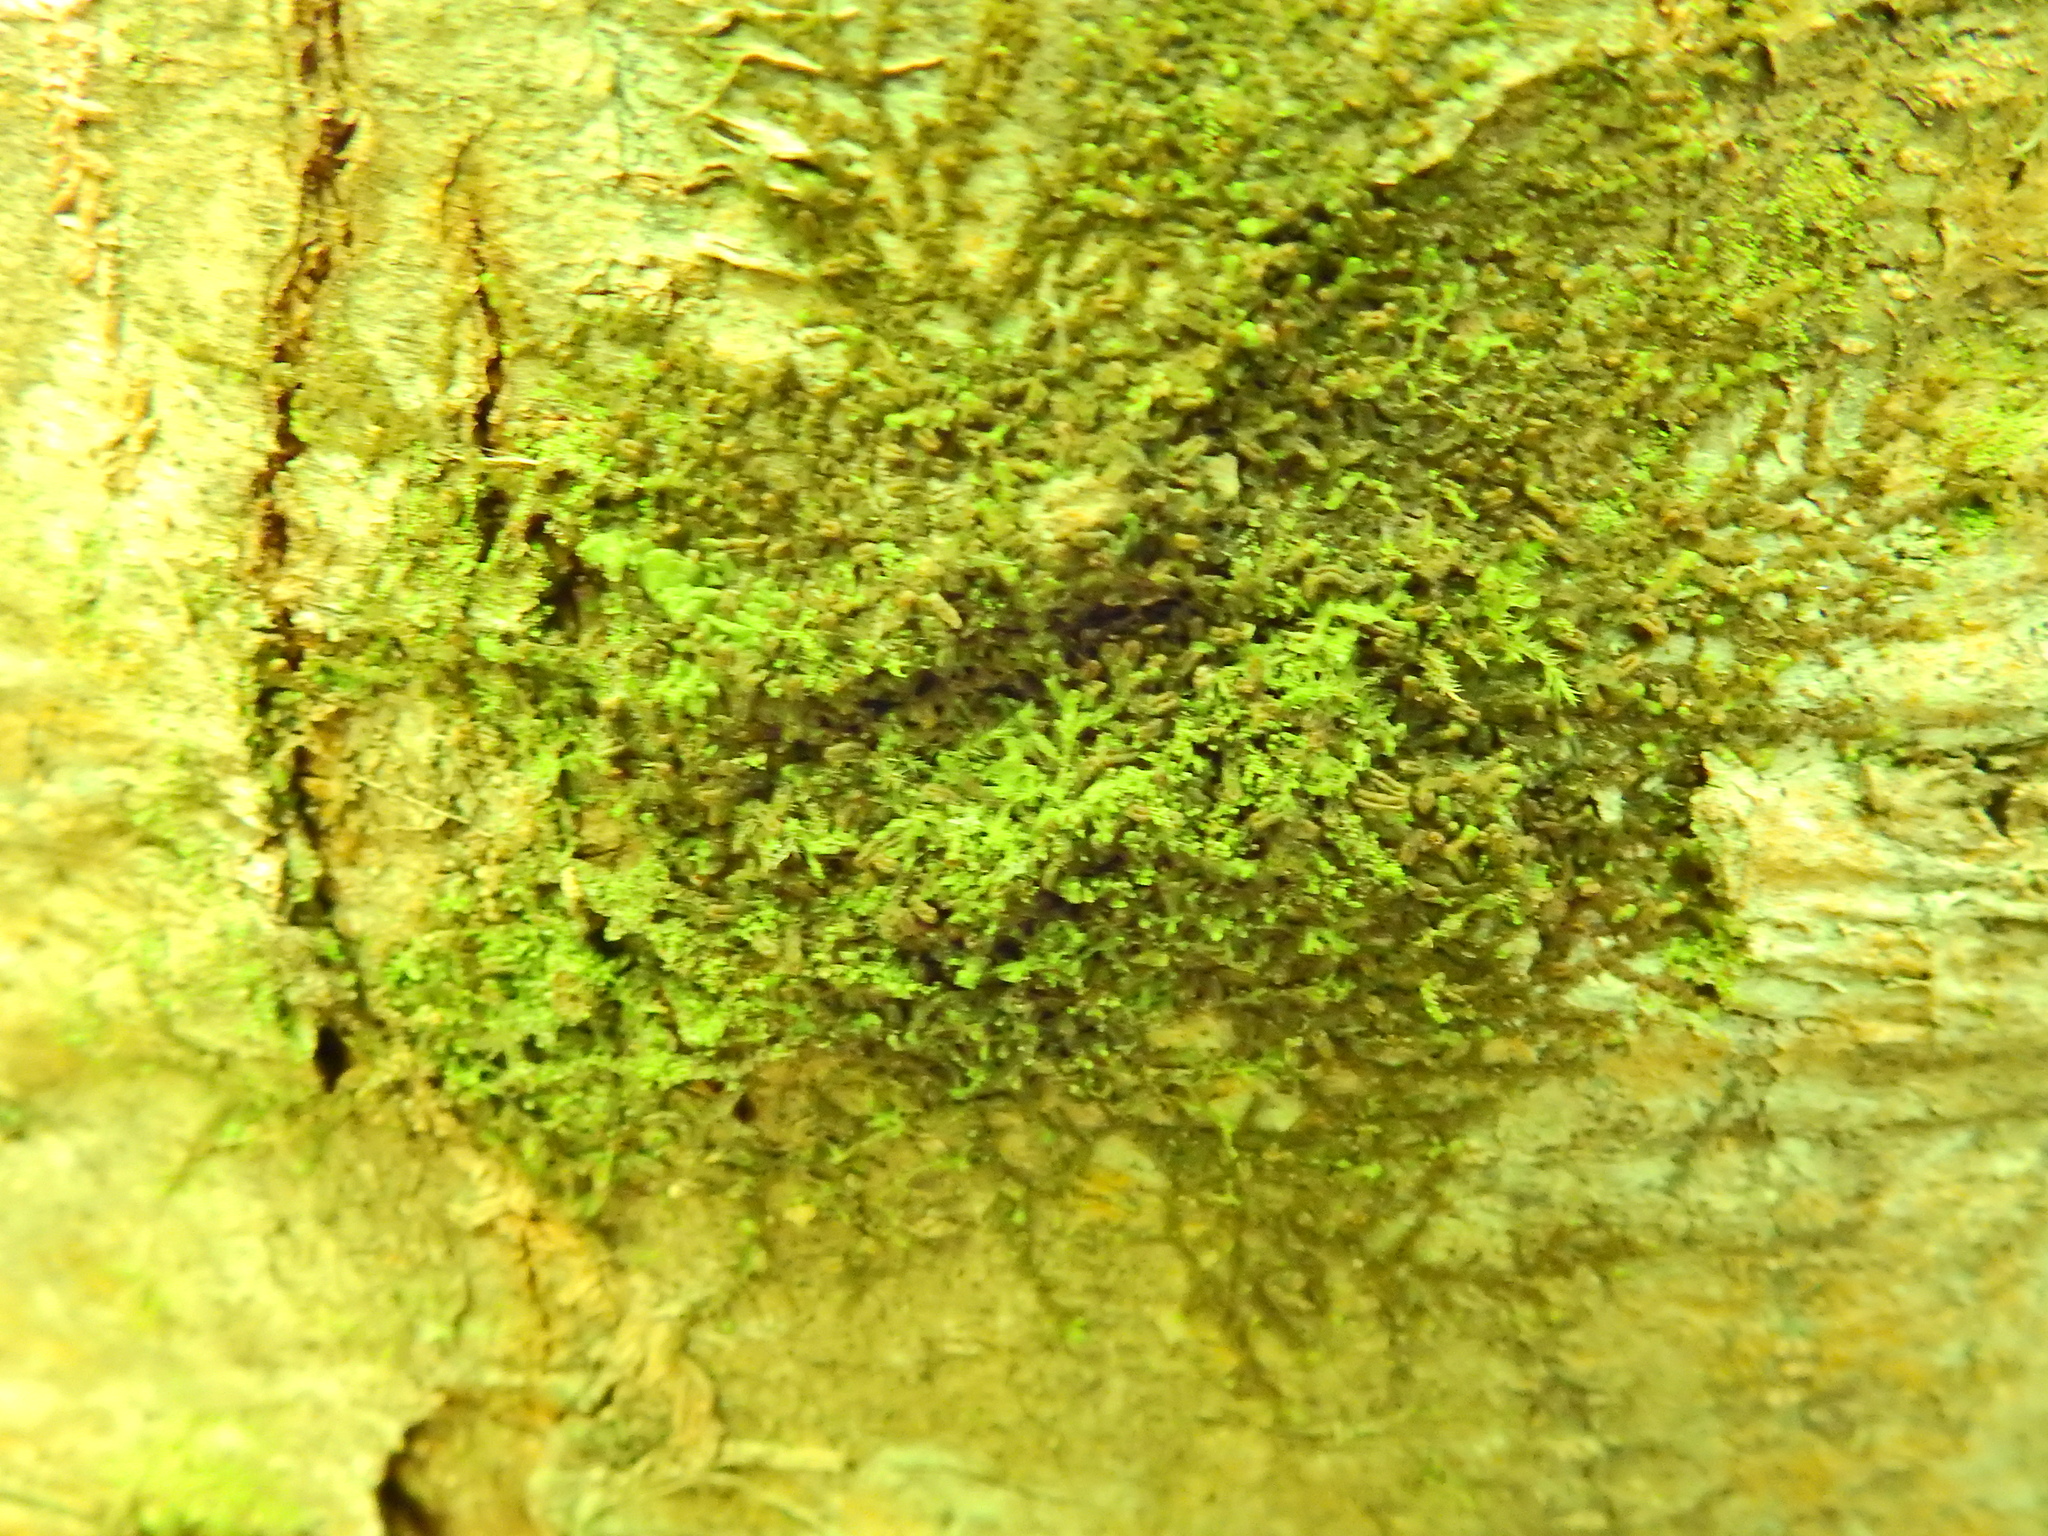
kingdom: Plantae
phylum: Marchantiophyta
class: Jungermanniopsida
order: Porellales
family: Frullaniaceae
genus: Frullania
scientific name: Frullania dilatata
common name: Dilated scalewort
